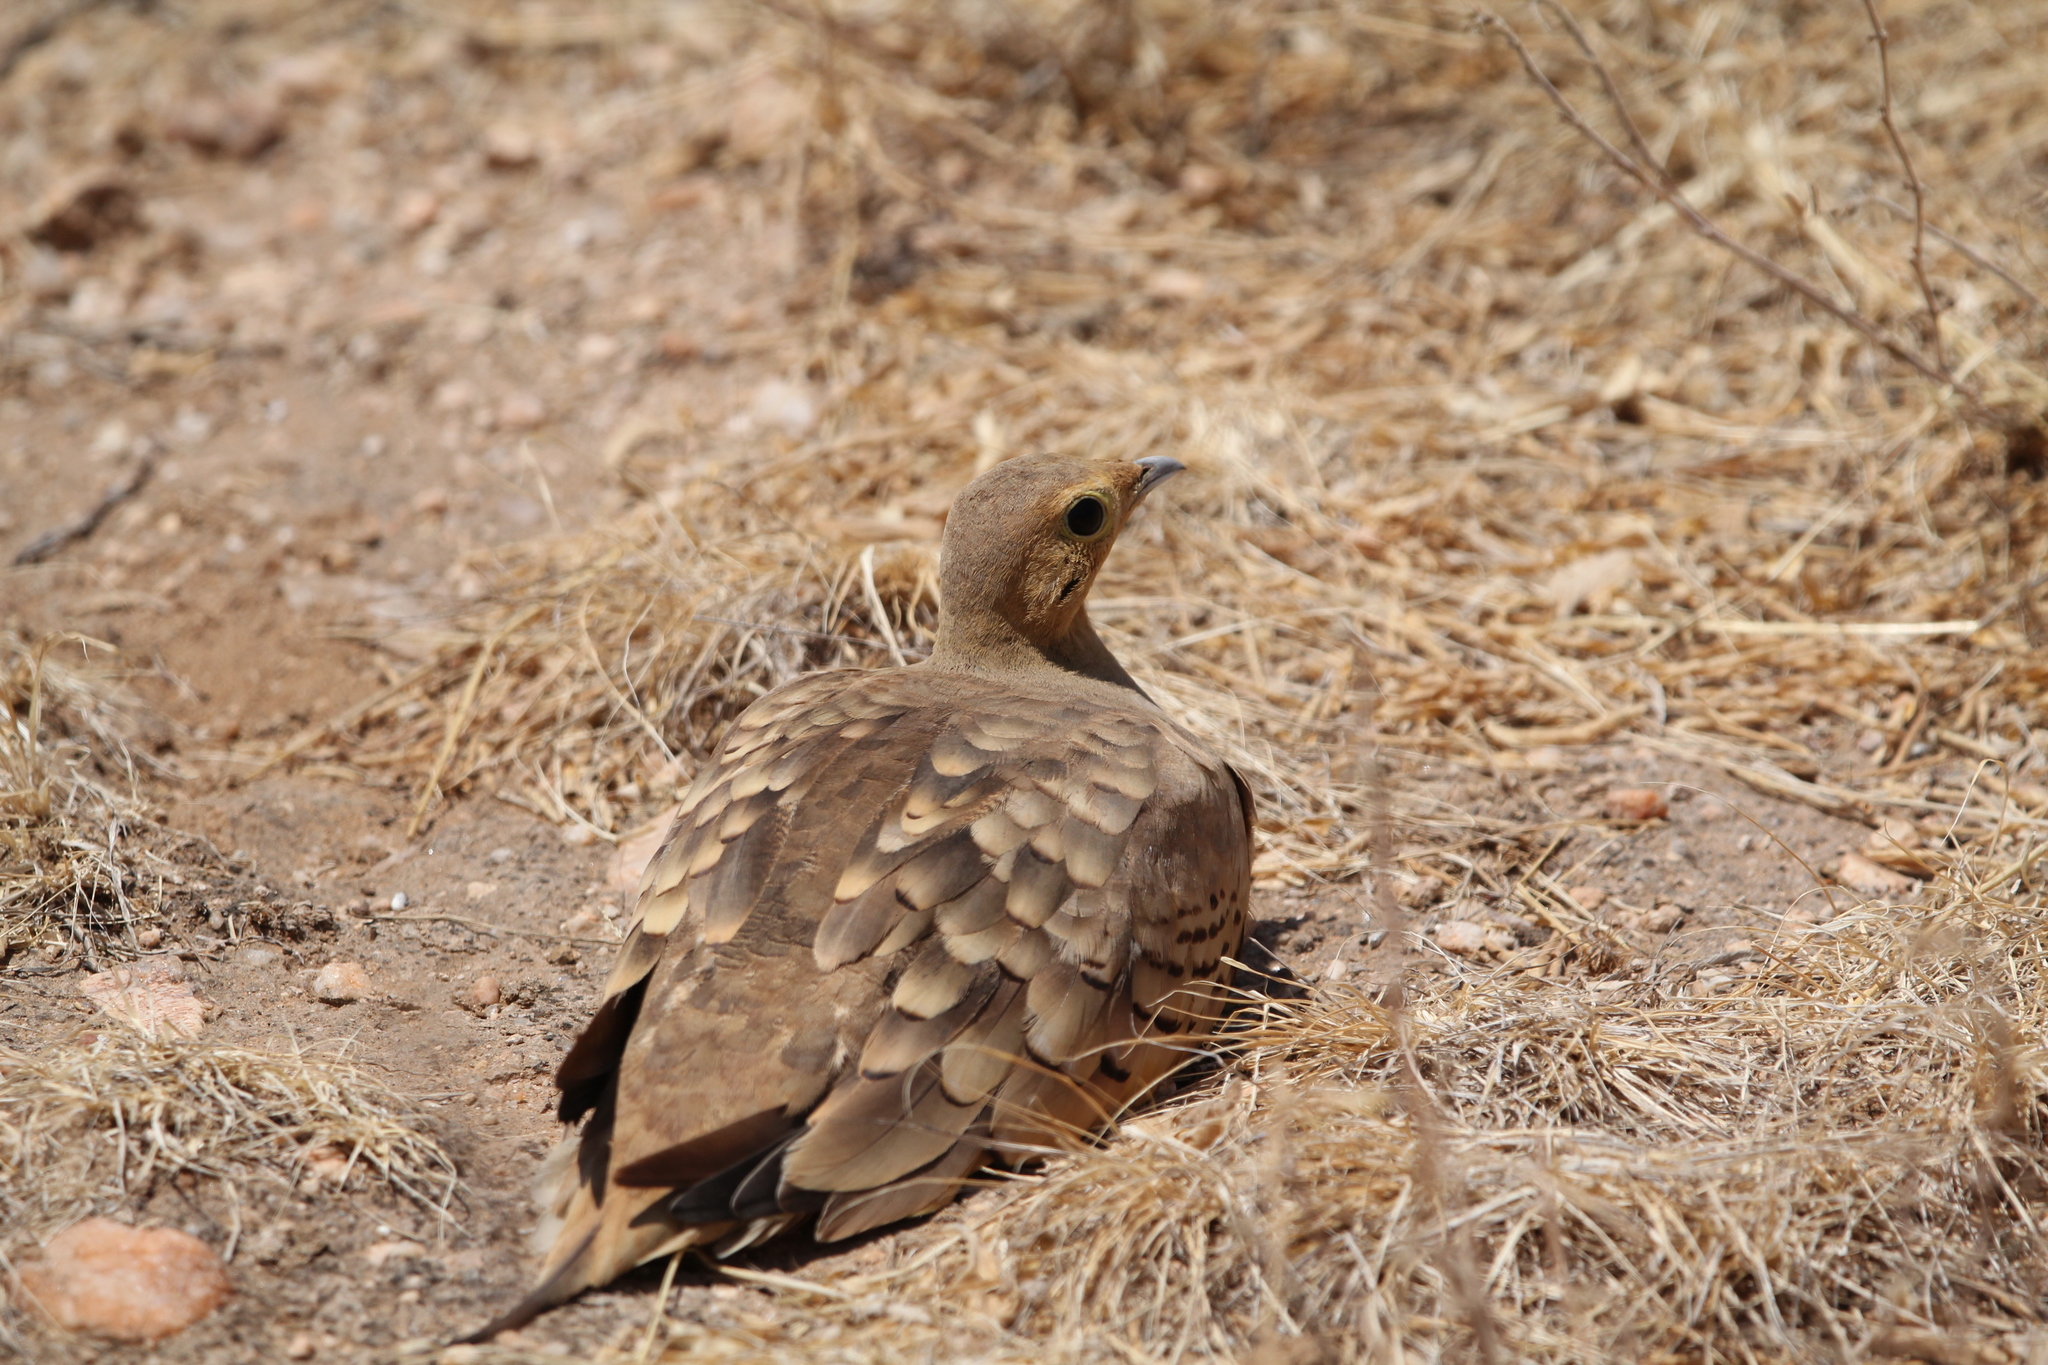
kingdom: Animalia
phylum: Chordata
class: Aves
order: Pteroclidiformes
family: Pteroclididae
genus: Pterocles
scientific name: Pterocles exustus
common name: Chestnut-bellied sandgrouse
